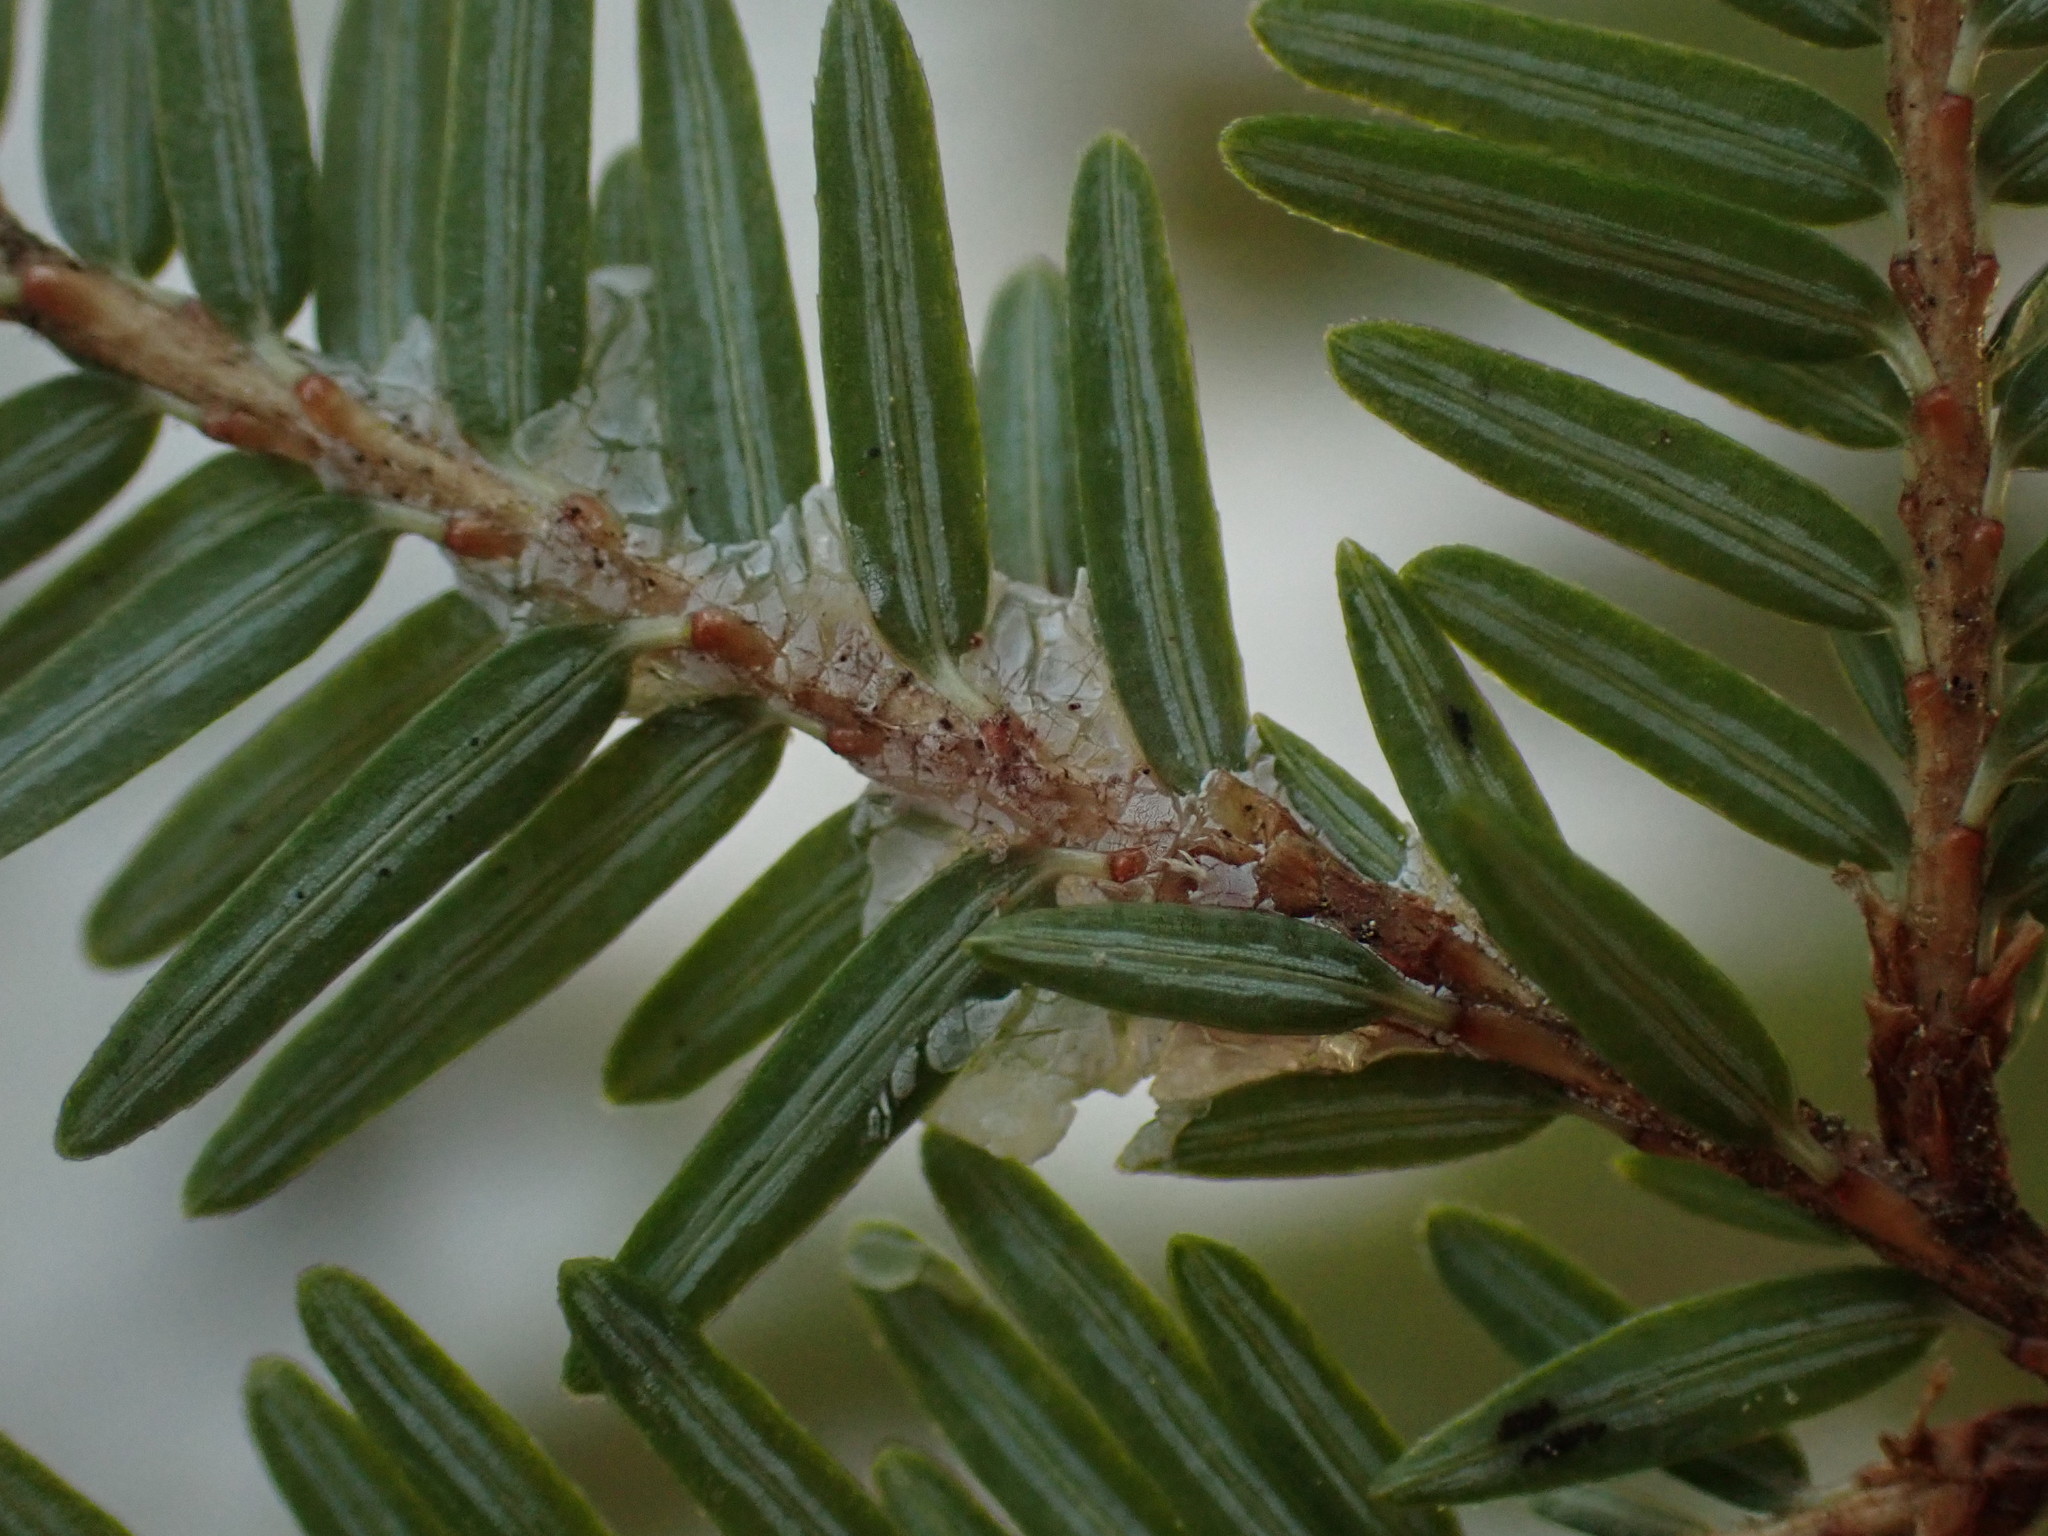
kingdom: Plantae
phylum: Tracheophyta
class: Pinopsida
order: Pinales
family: Pinaceae
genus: Tsuga
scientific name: Tsuga canadensis
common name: Eastern hemlock
